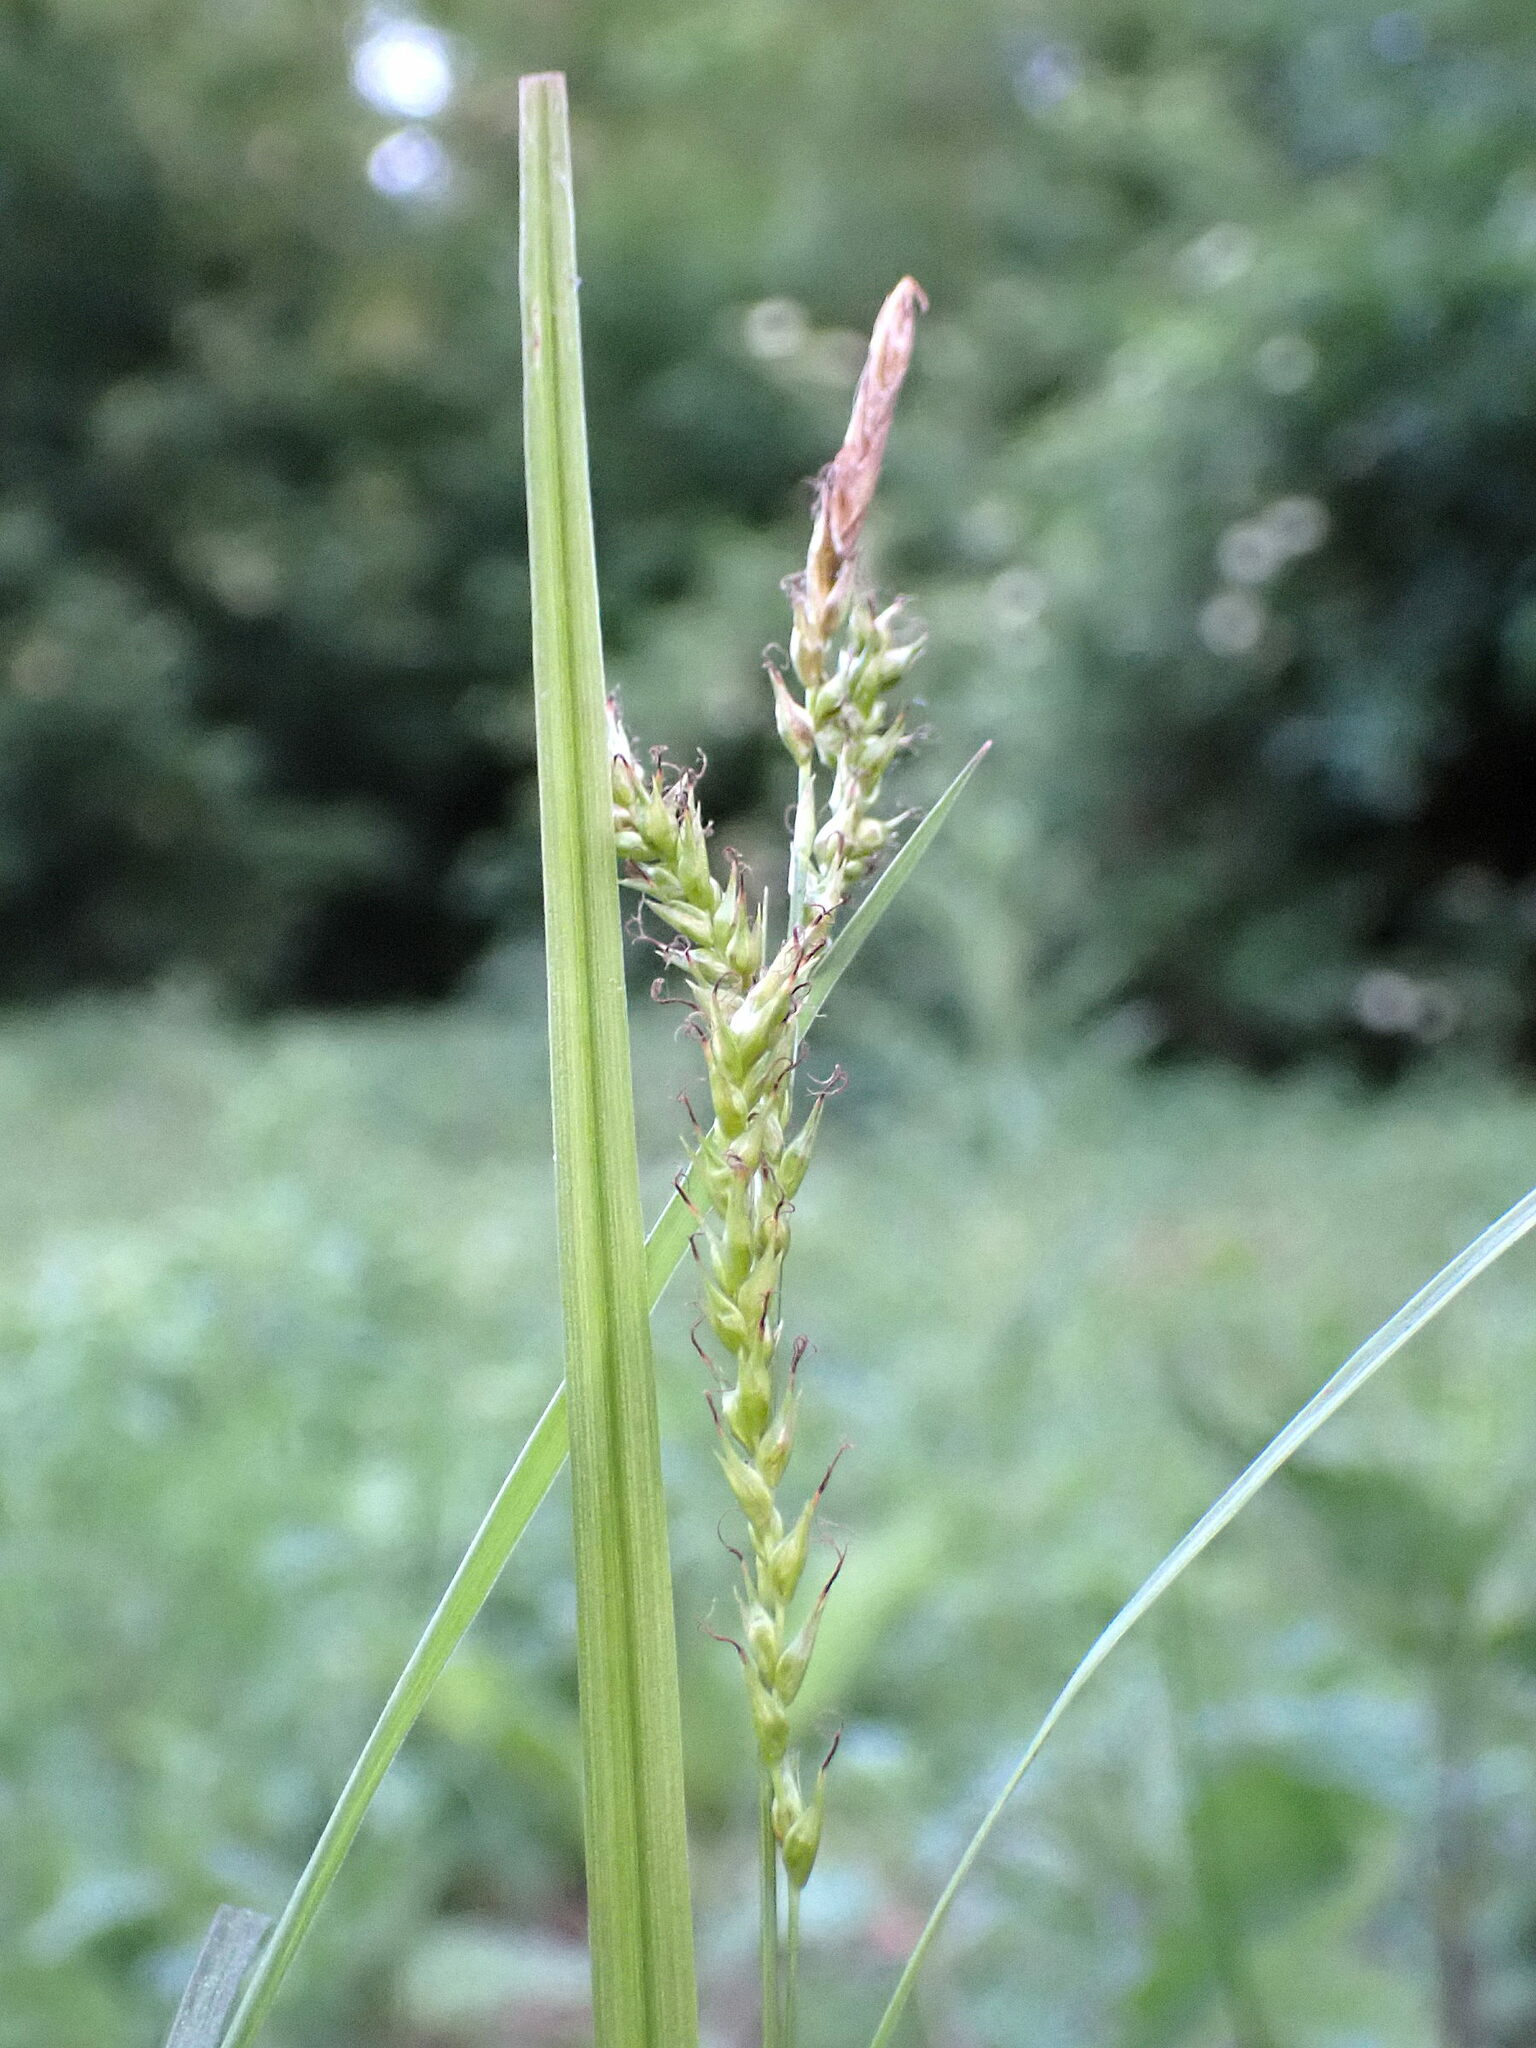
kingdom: Plantae
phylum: Tracheophyta
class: Liliopsida
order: Poales
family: Cyperaceae
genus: Carex
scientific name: Carex sylvatica
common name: Wood-sedge
